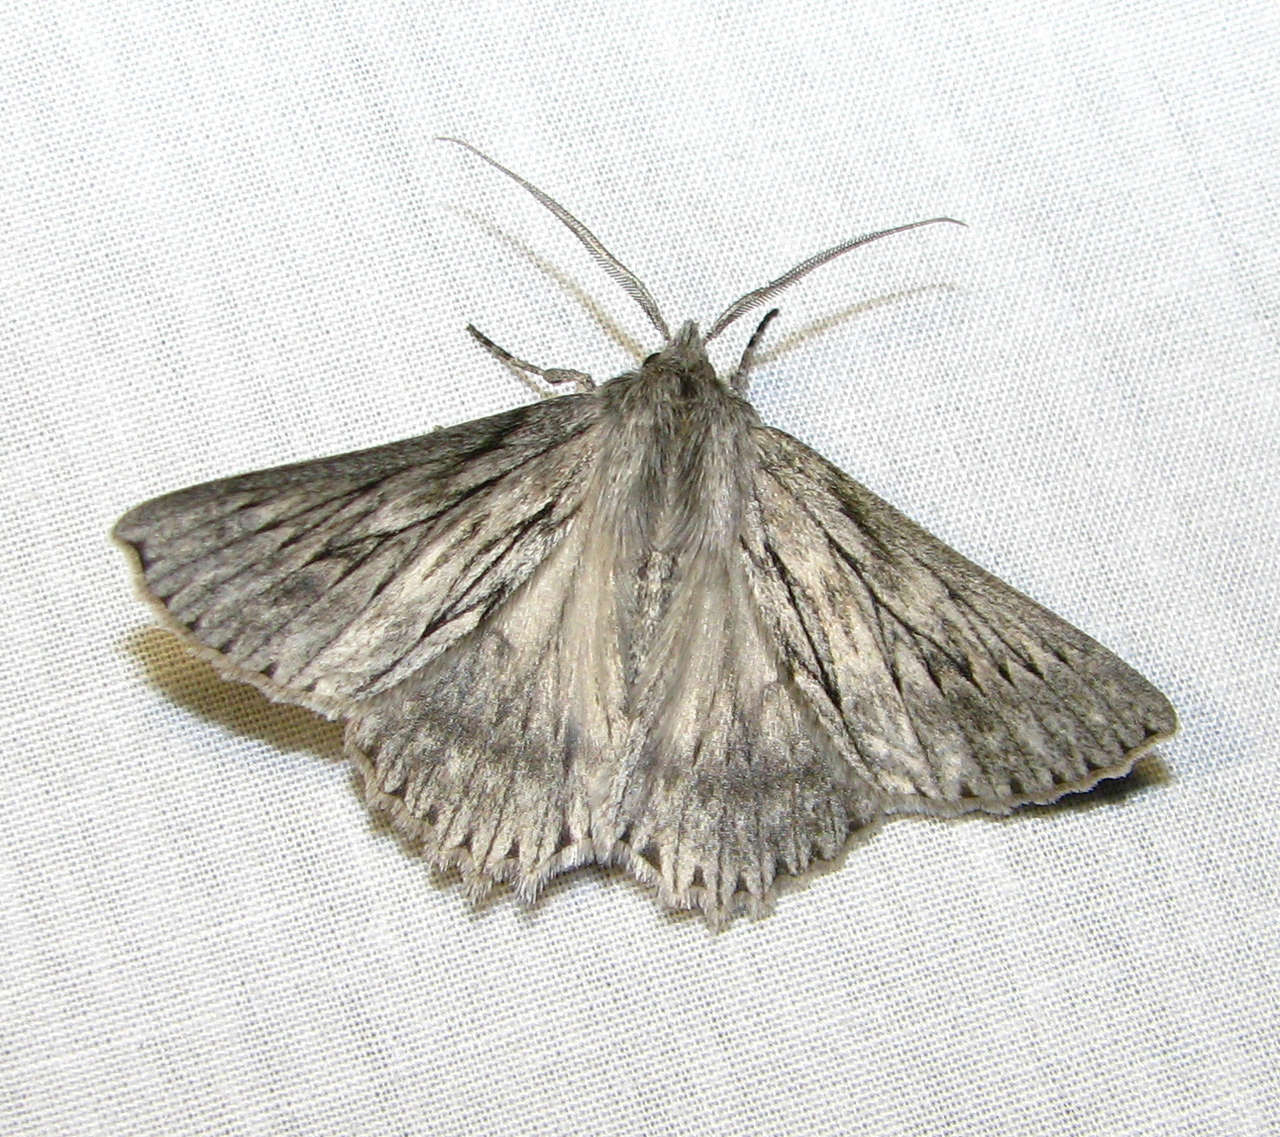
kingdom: Animalia
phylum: Arthropoda
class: Insecta
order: Lepidoptera
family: Geometridae
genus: Cyneoterpna
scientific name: Cyneoterpna wilsoni
